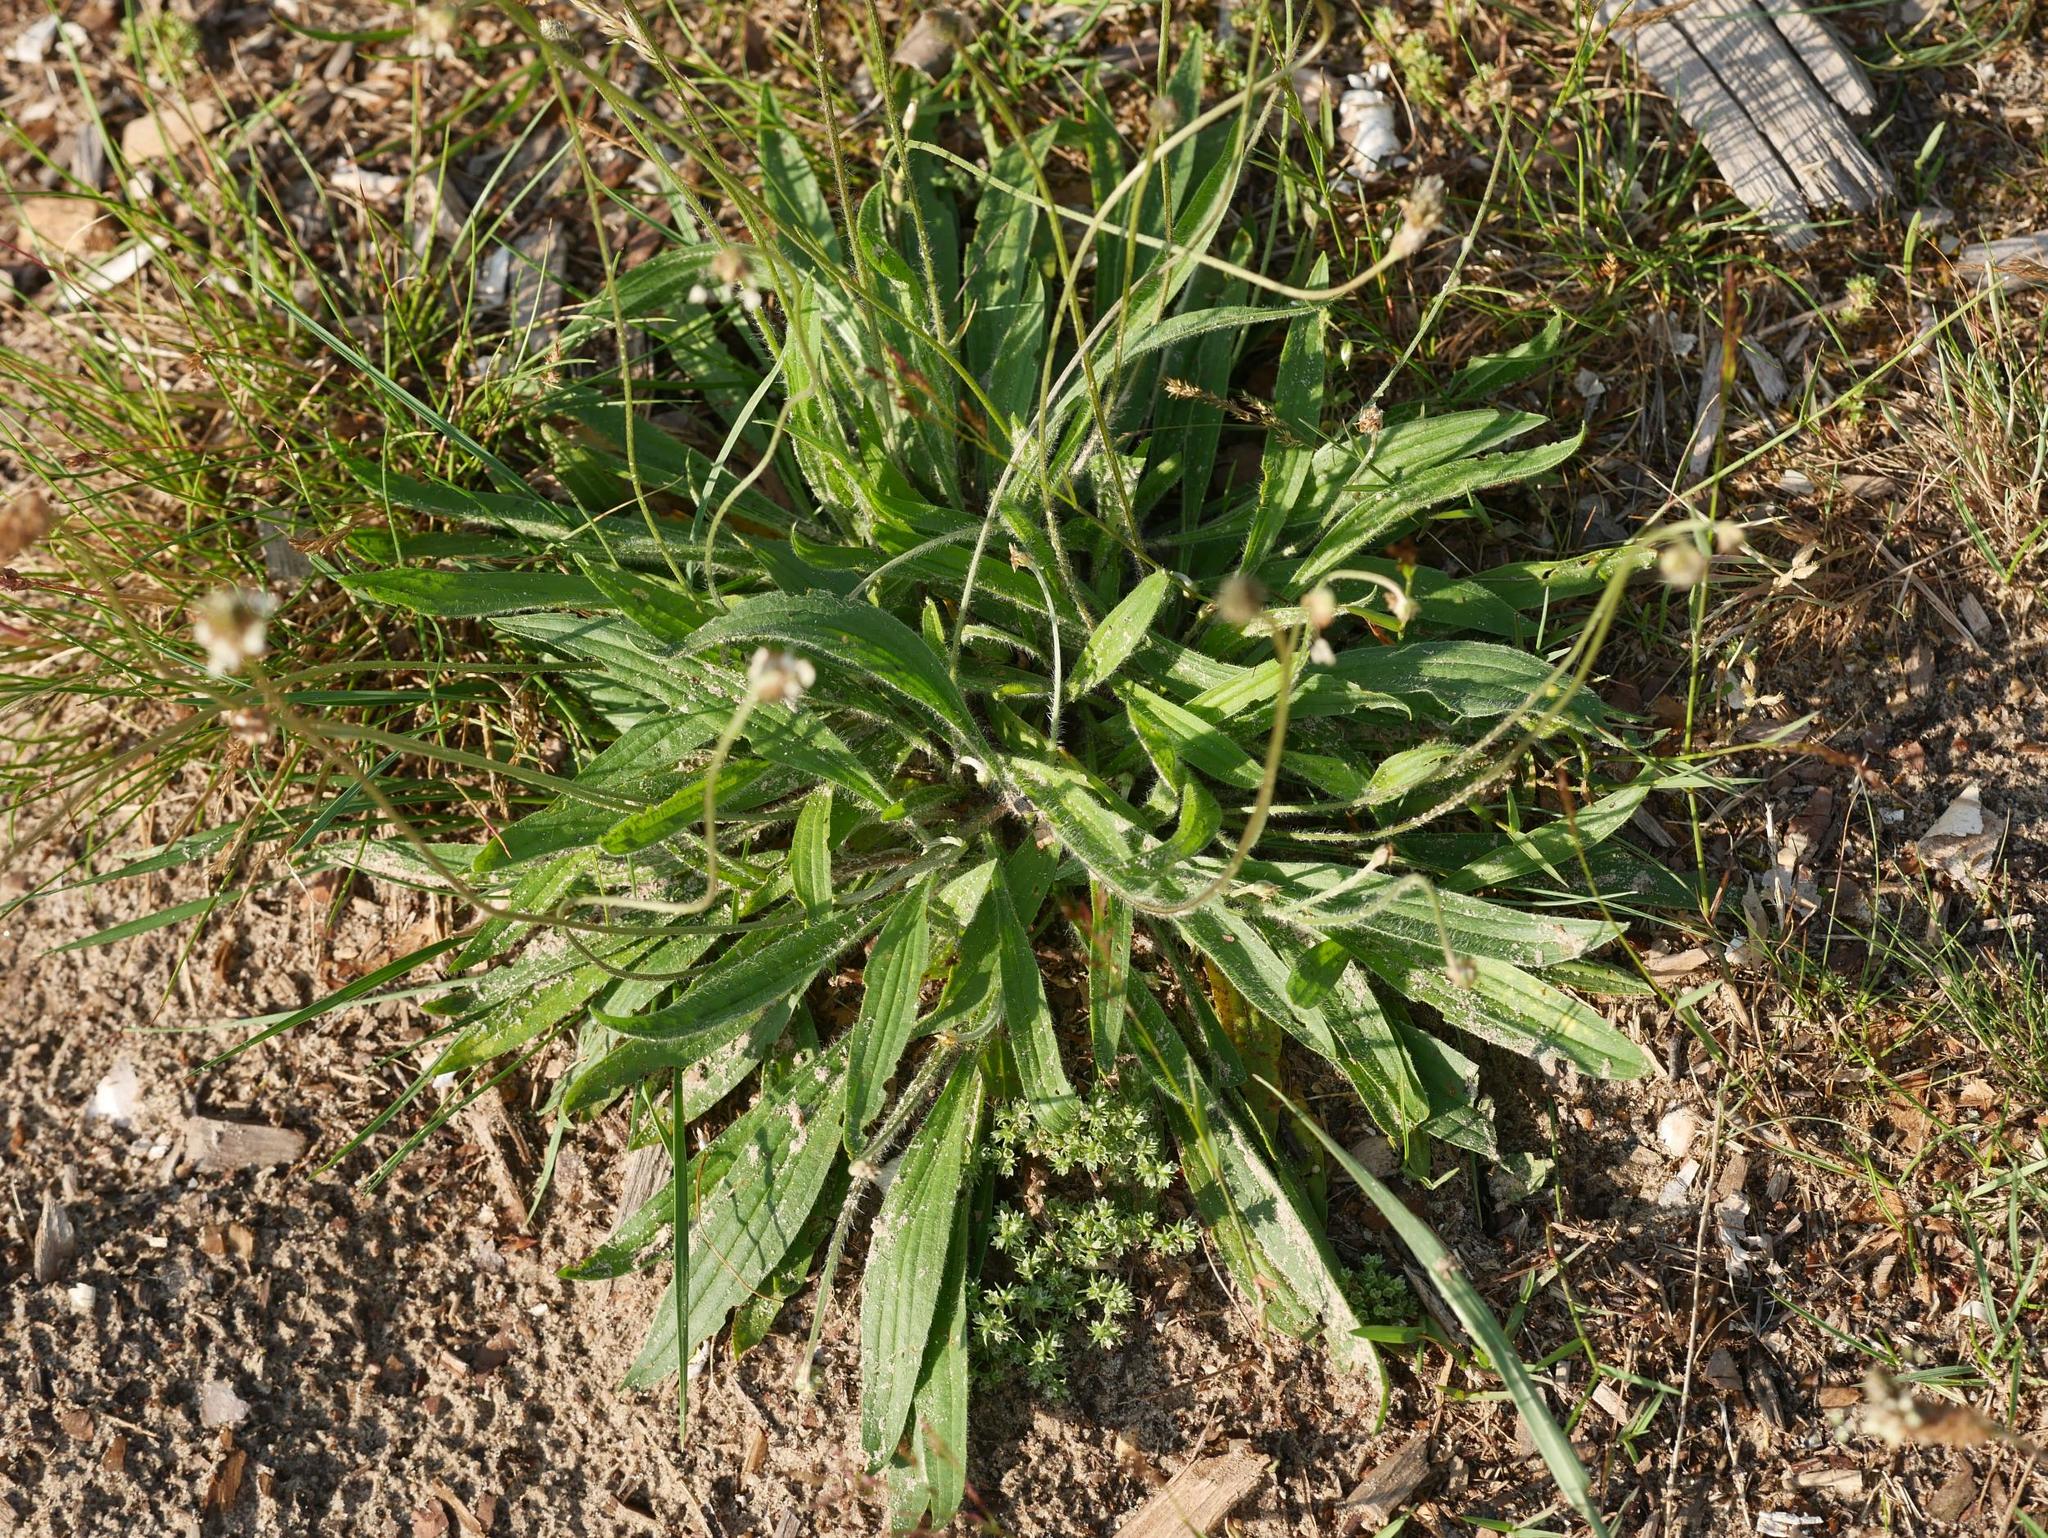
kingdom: Plantae
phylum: Tracheophyta
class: Magnoliopsida
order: Lamiales
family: Plantaginaceae
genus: Plantago
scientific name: Plantago lanceolata
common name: Ribwort plantain
